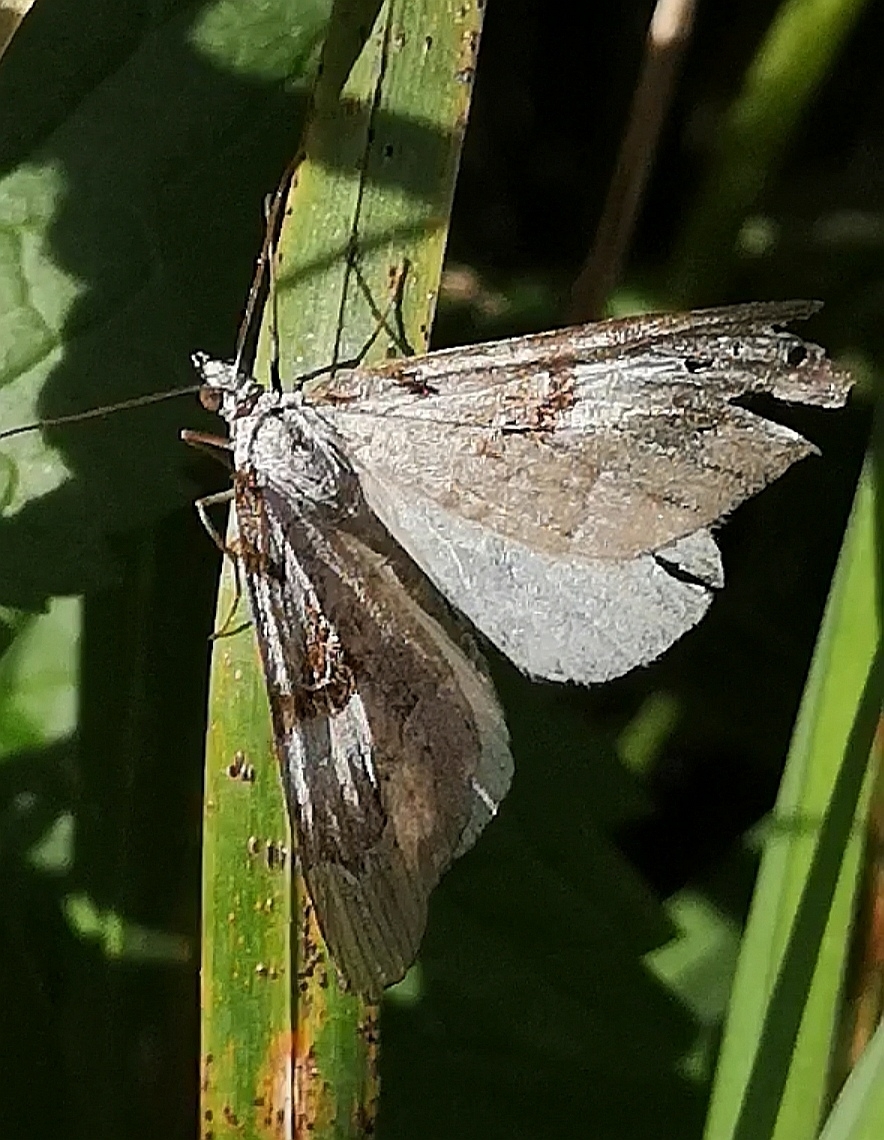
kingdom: Animalia
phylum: Arthropoda
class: Insecta
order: Lepidoptera
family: Geometridae
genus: Aplocera
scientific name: Aplocera praeformata
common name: Purple treble-bar
